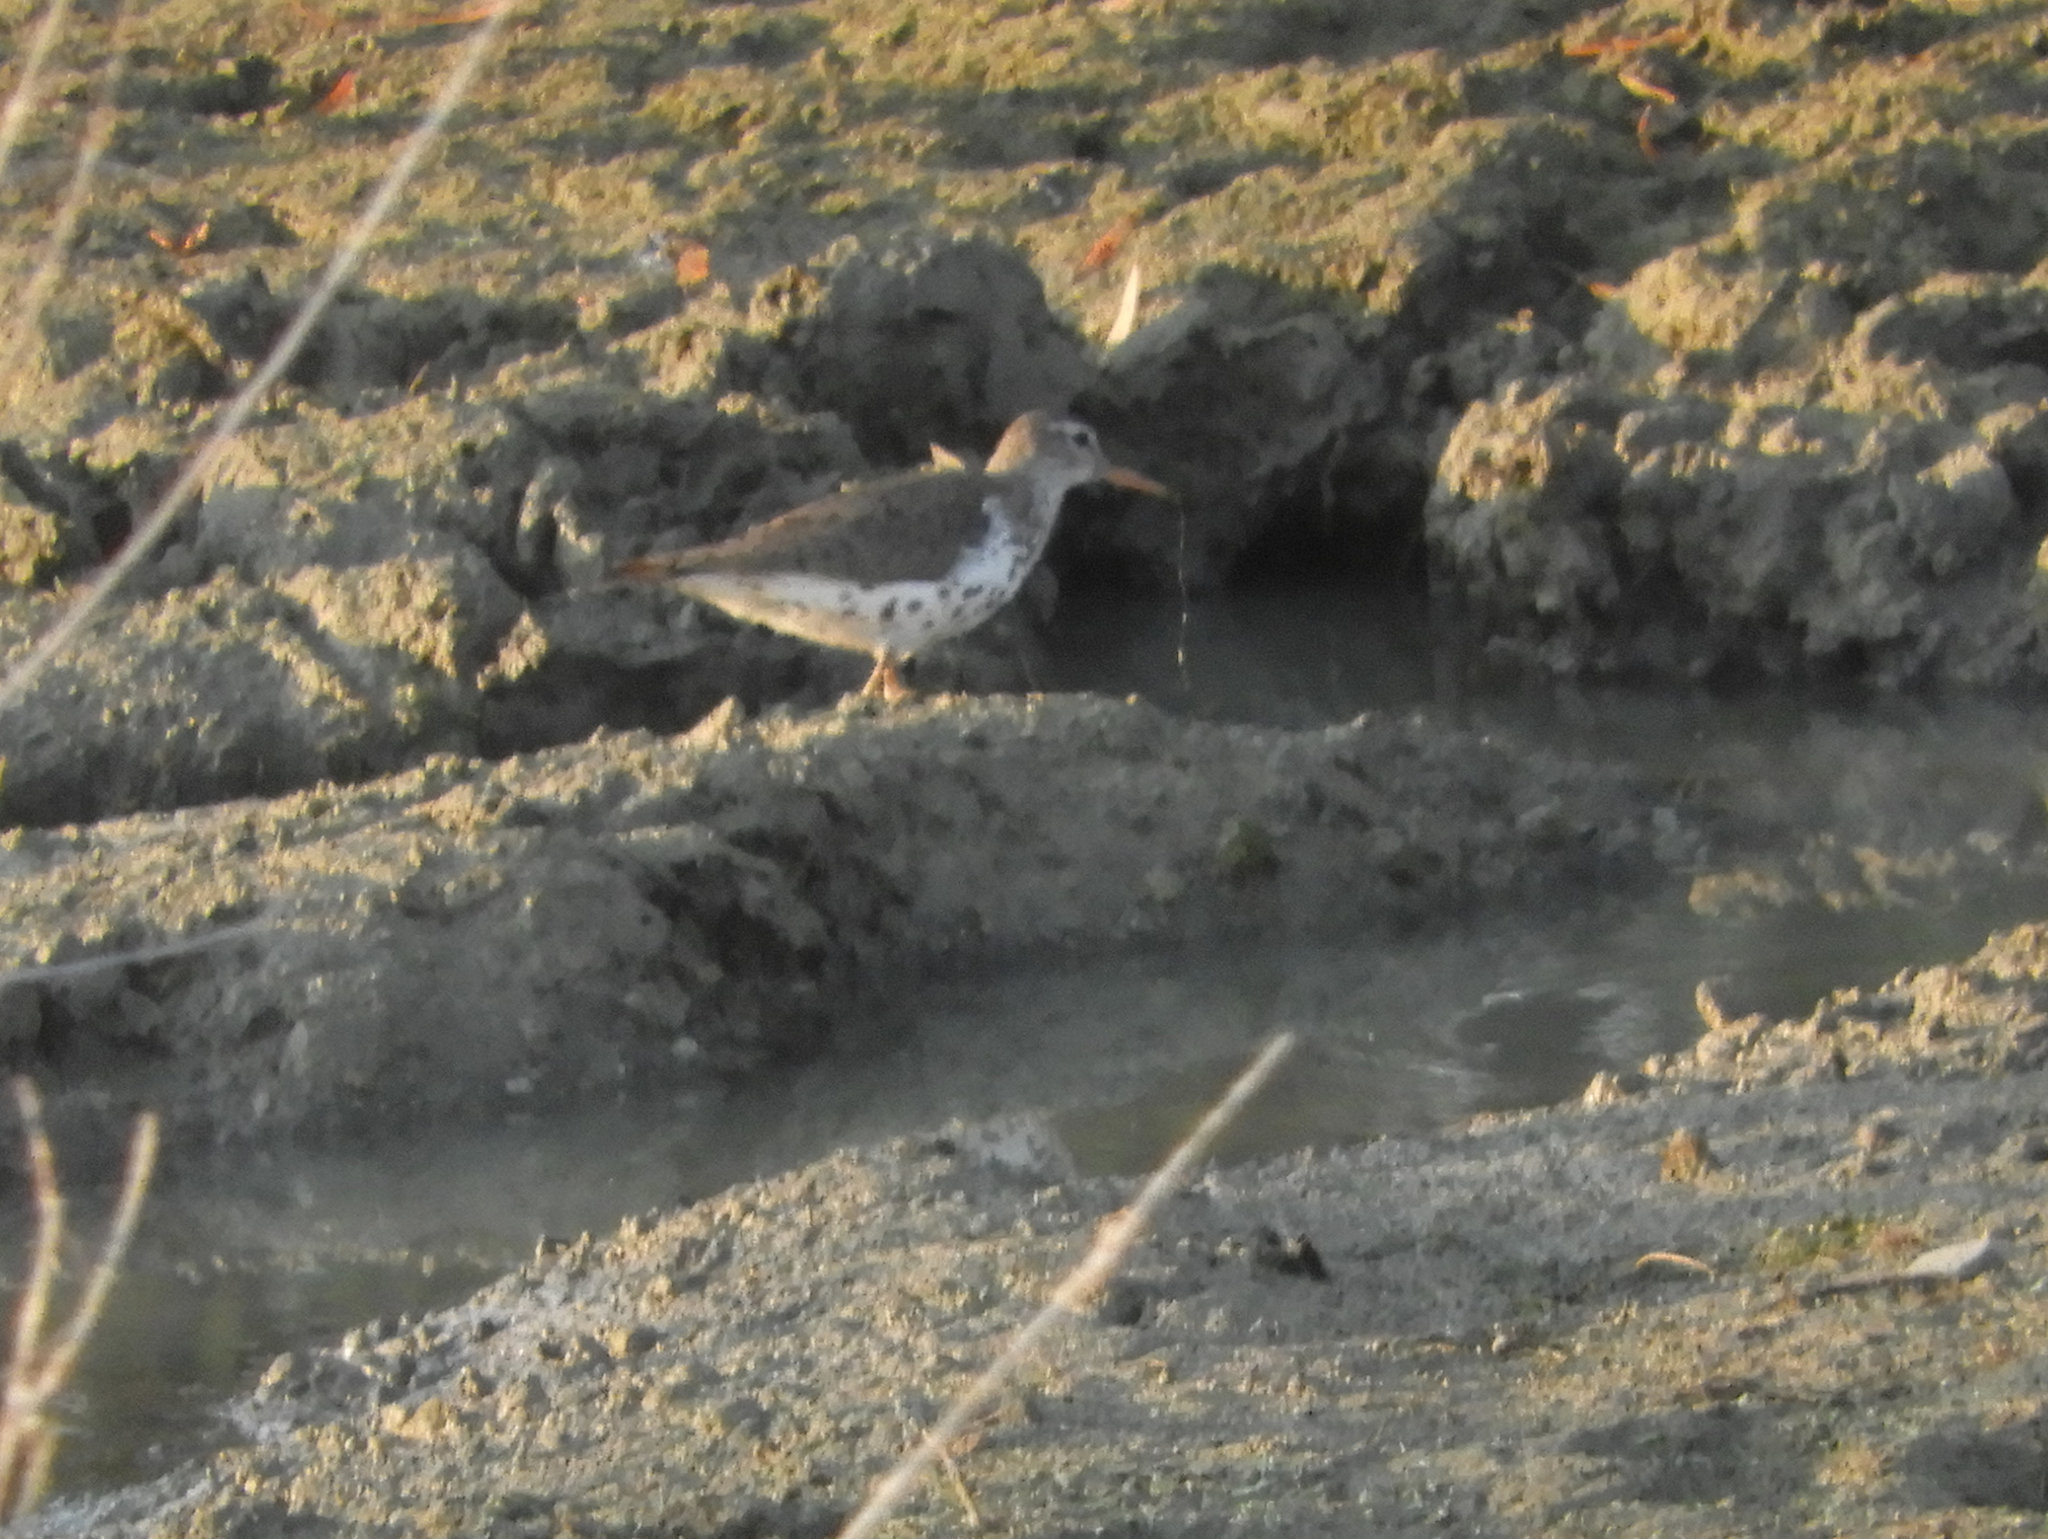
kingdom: Animalia
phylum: Chordata
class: Aves
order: Charadriiformes
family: Scolopacidae
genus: Actitis
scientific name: Actitis macularius
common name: Spotted sandpiper
